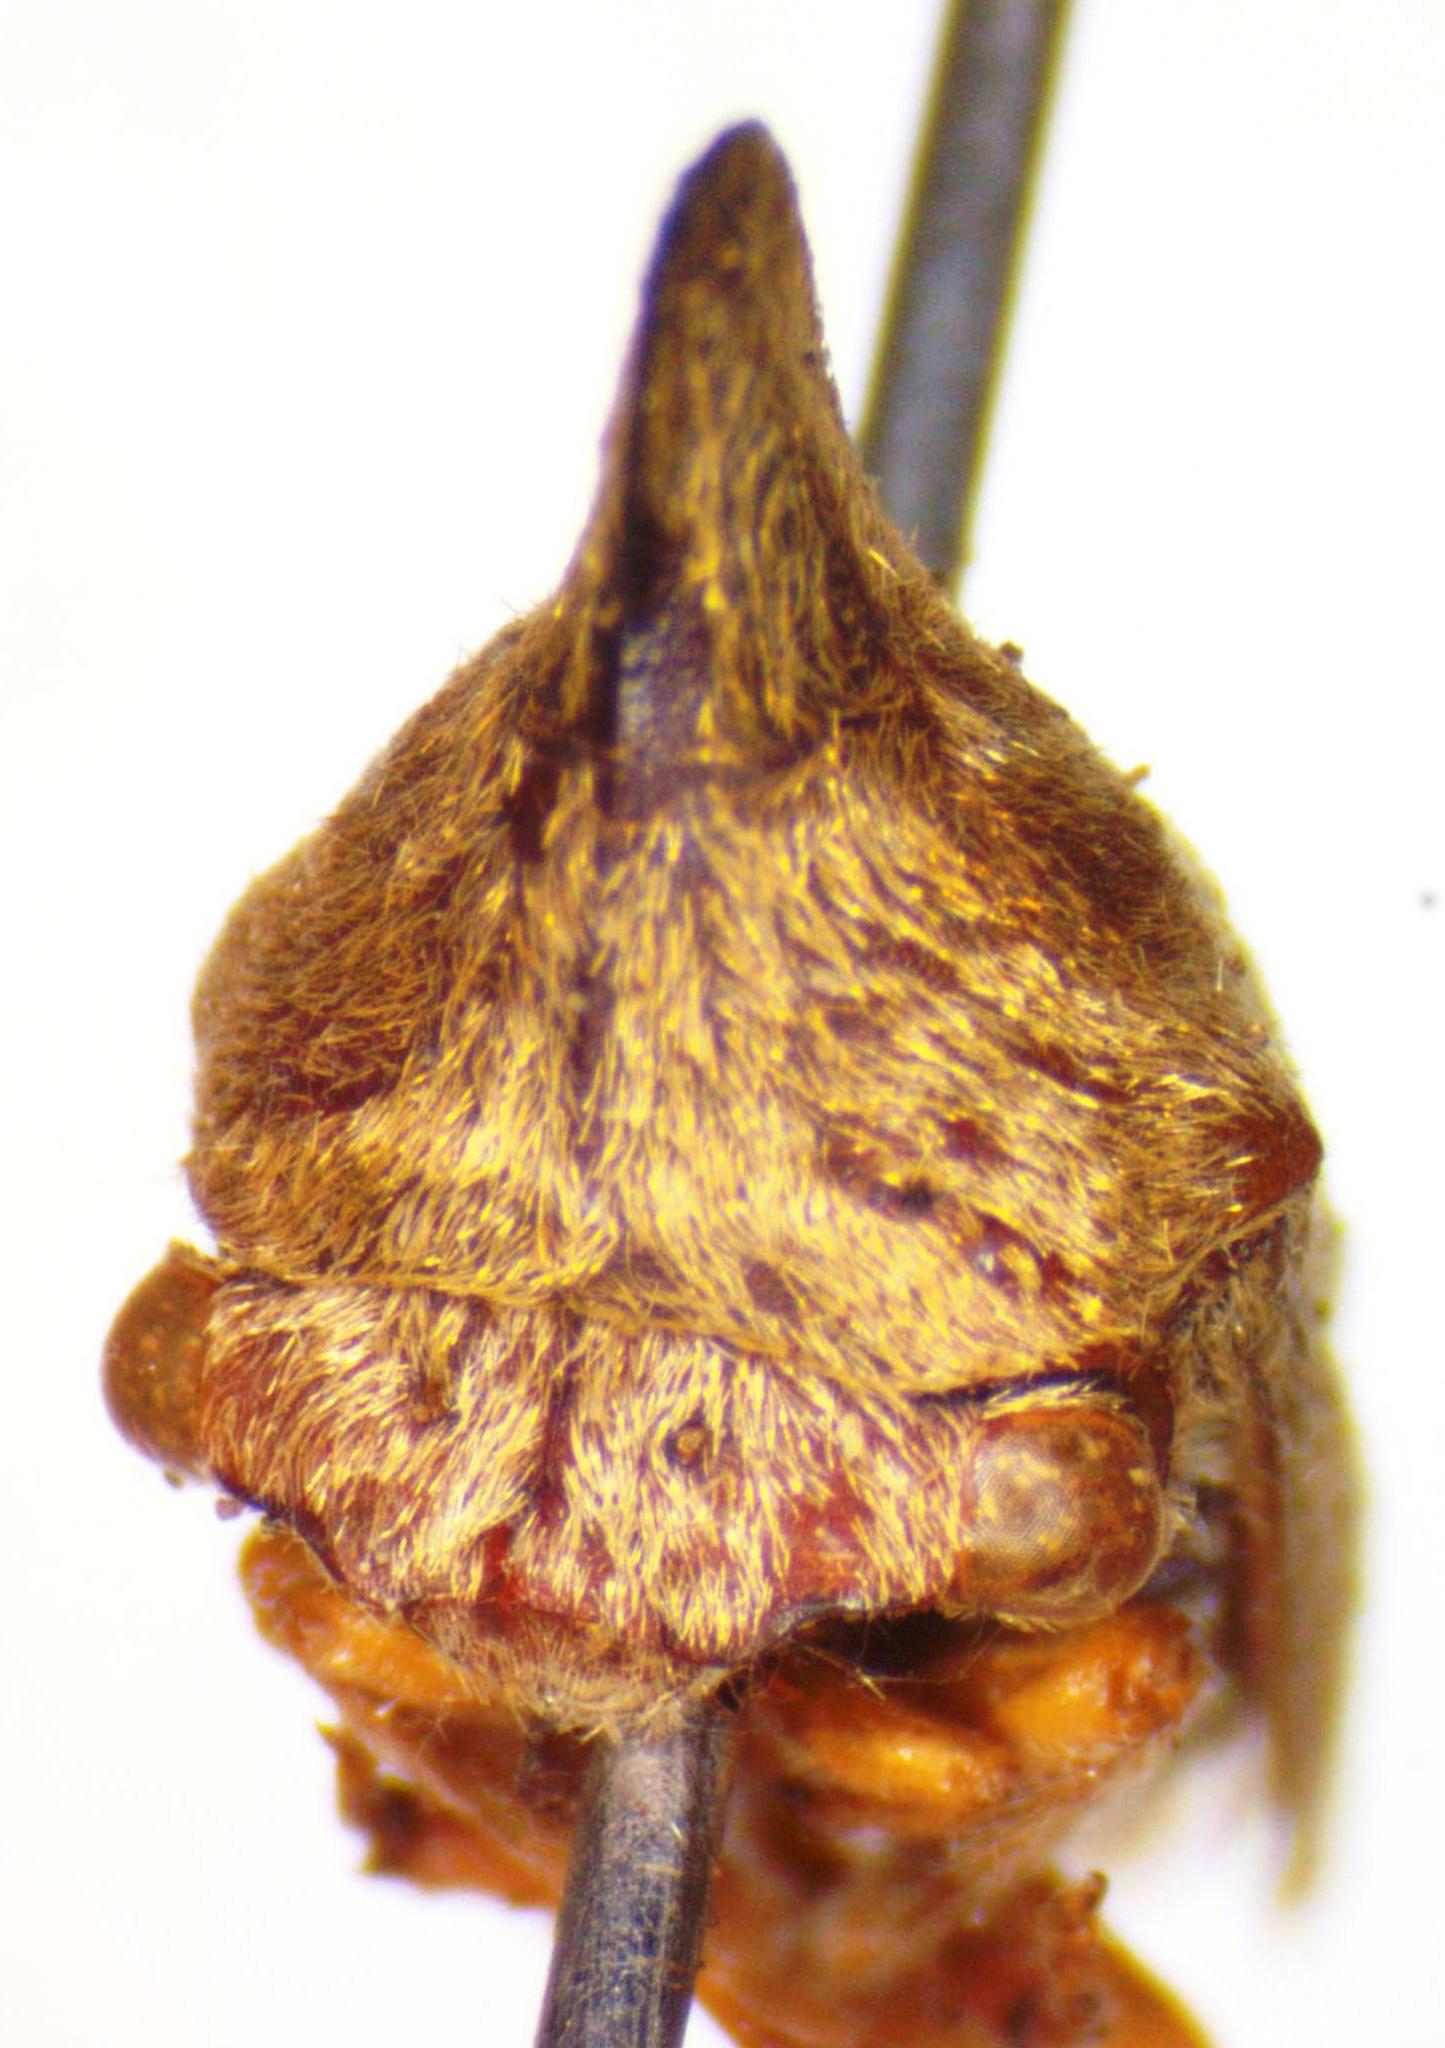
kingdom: Animalia
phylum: Arthropoda
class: Insecta
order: Hemiptera
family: Membracidae
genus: Calloconophora
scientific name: Calloconophora obliqua
